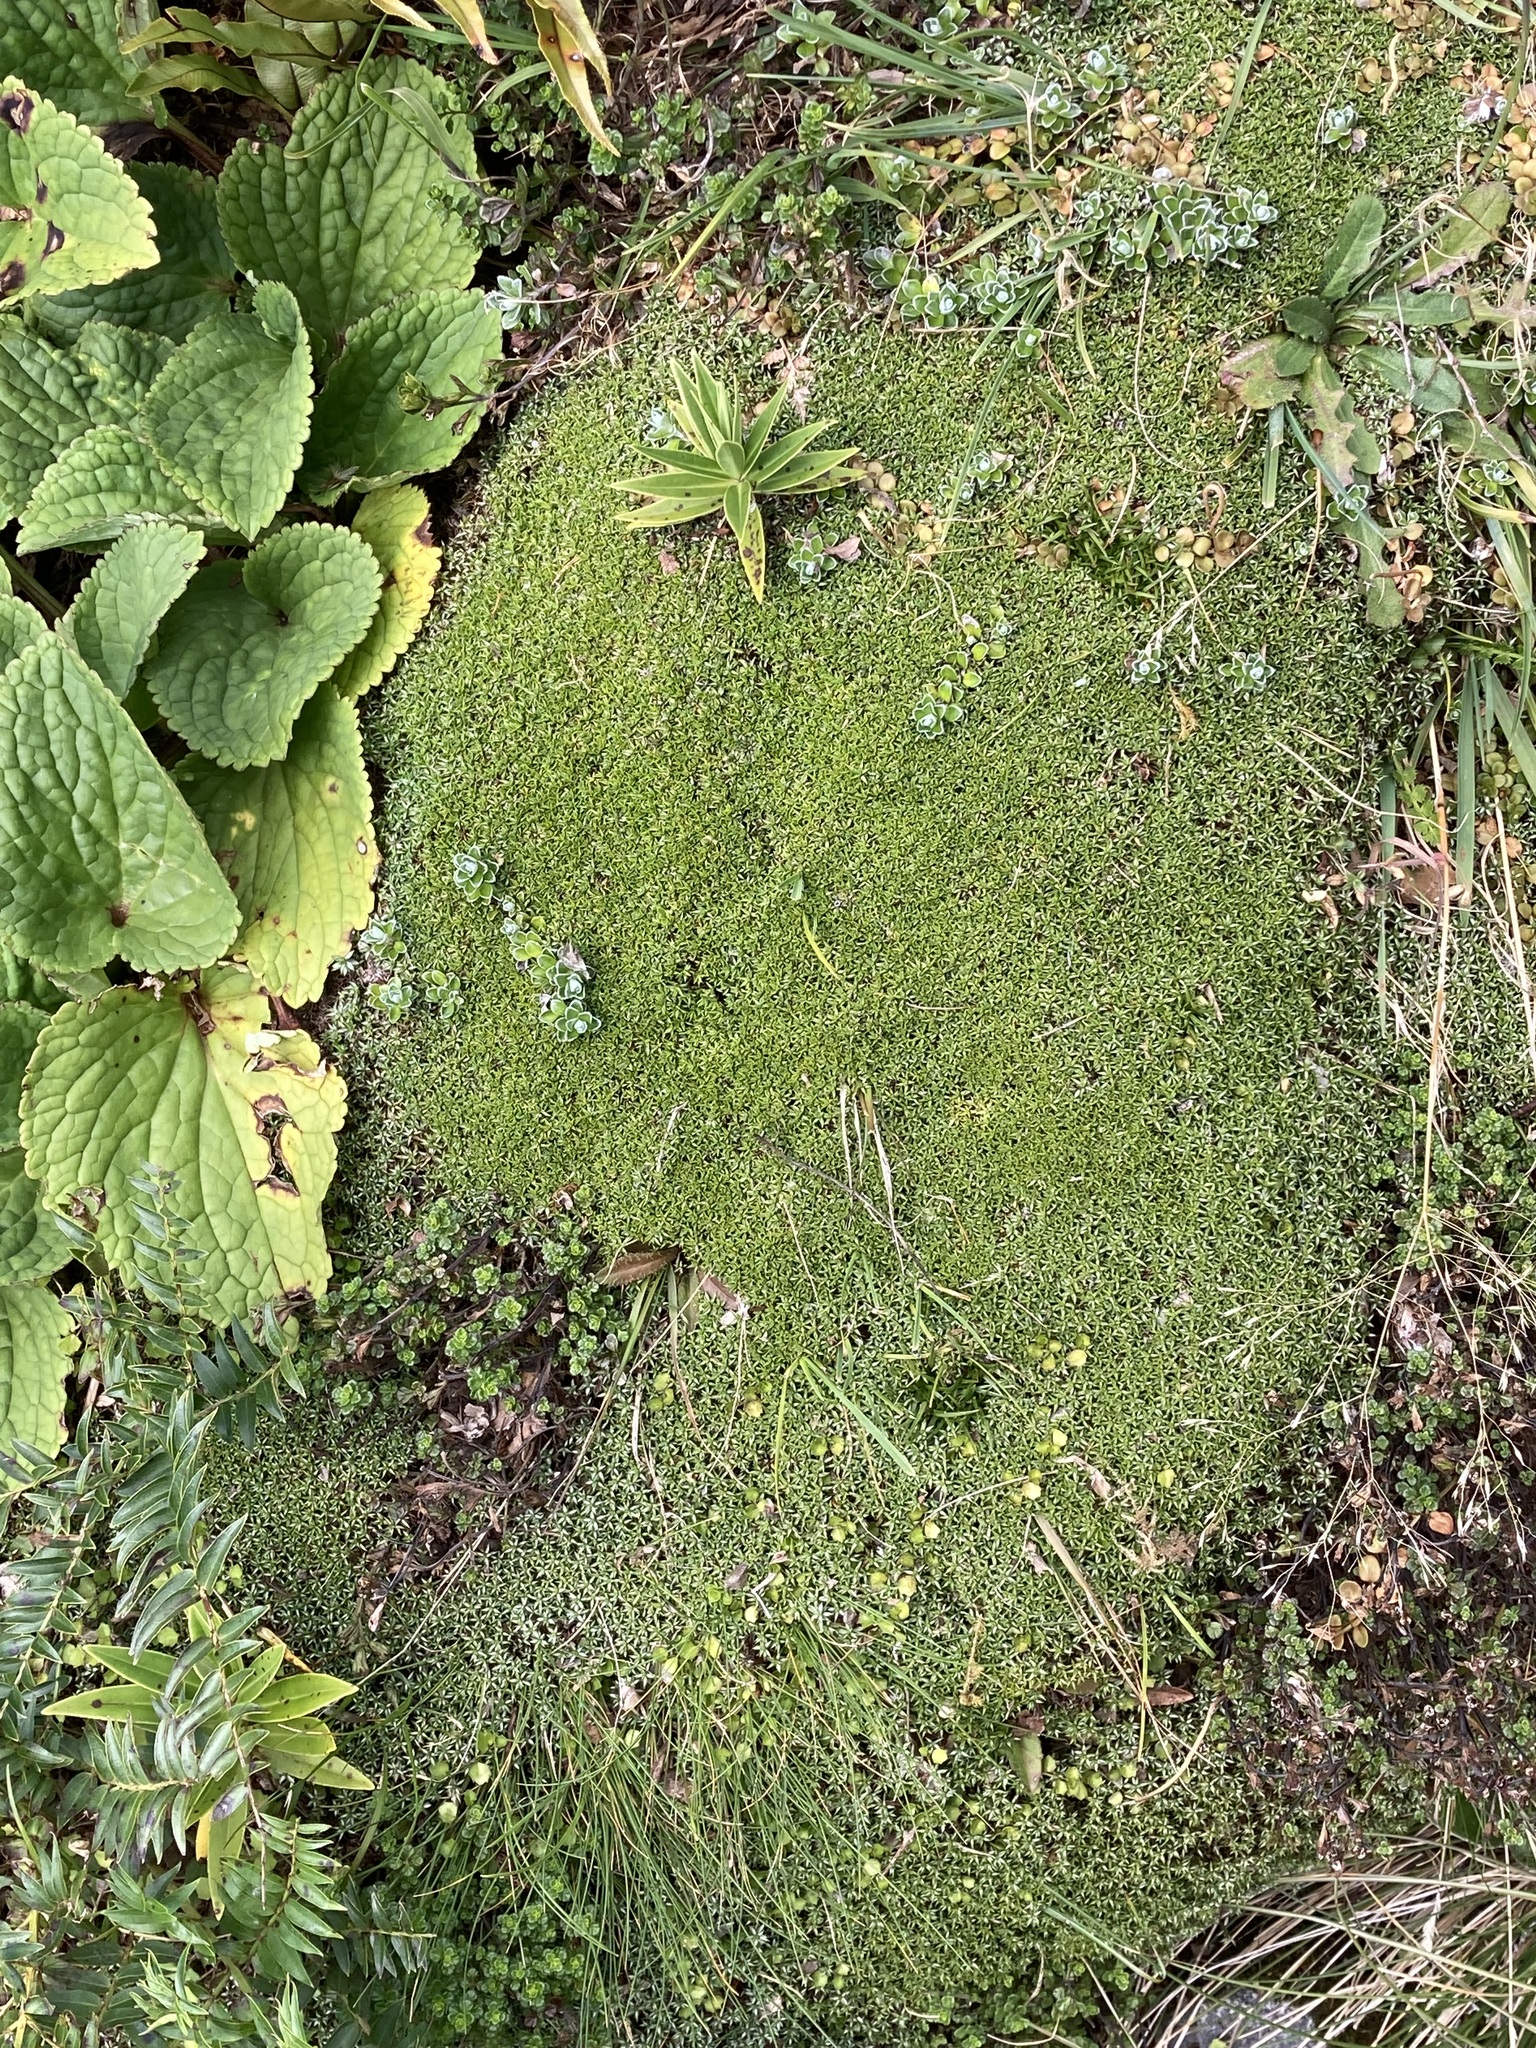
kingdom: Plantae
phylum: Tracheophyta
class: Magnoliopsida
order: Asterales
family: Asteraceae
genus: Raoulia
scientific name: Raoulia tenuicaulis
